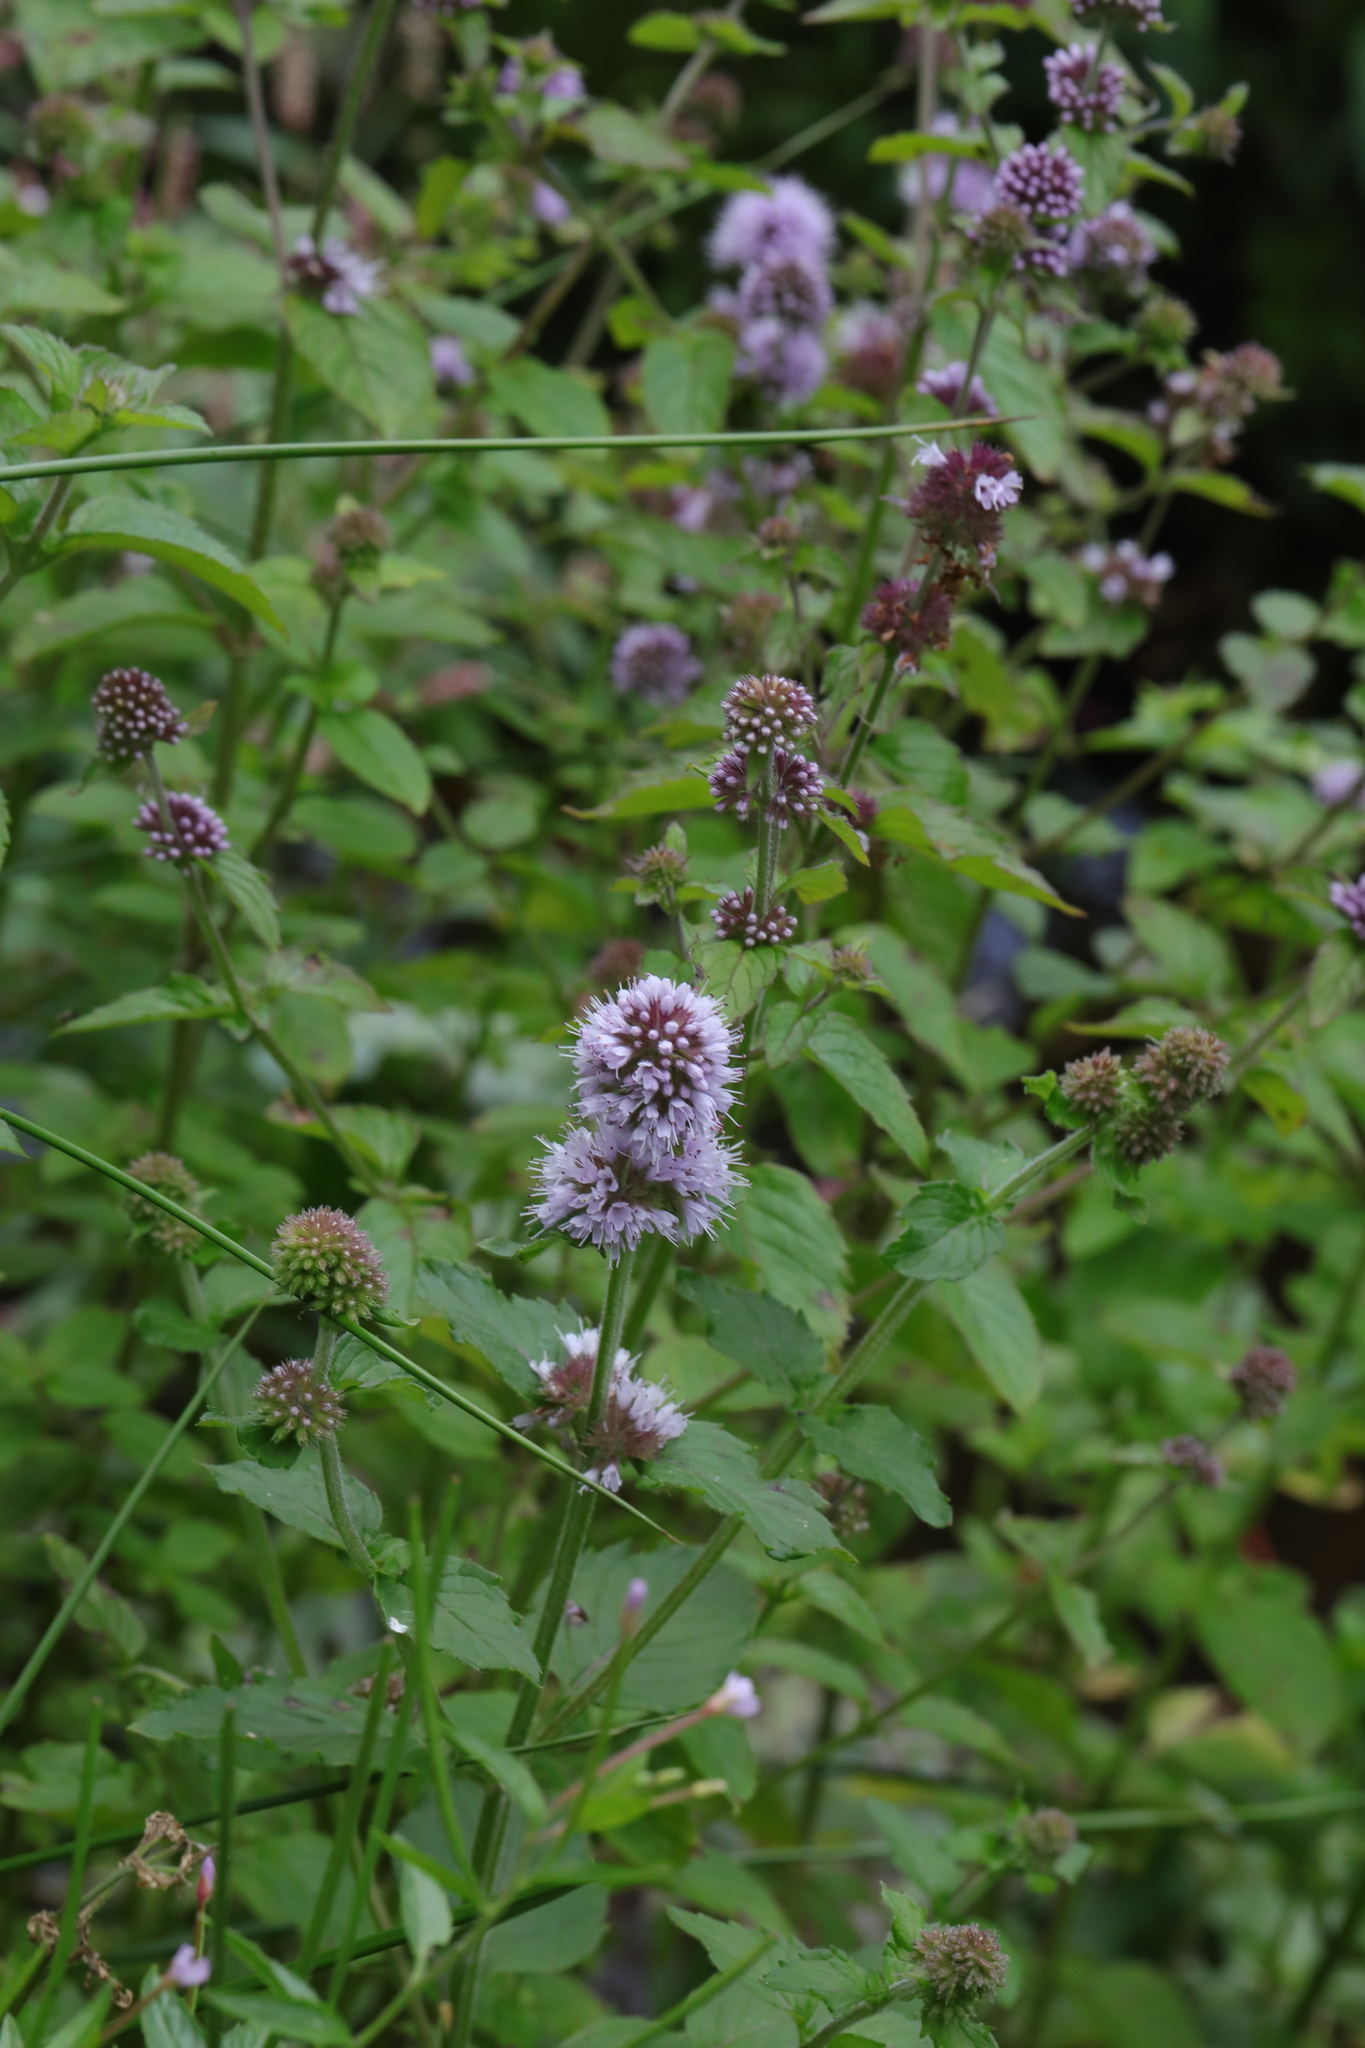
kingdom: Plantae
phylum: Tracheophyta
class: Magnoliopsida
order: Lamiales
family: Lamiaceae
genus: Mentha
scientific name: Mentha aquatica
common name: Water mint
